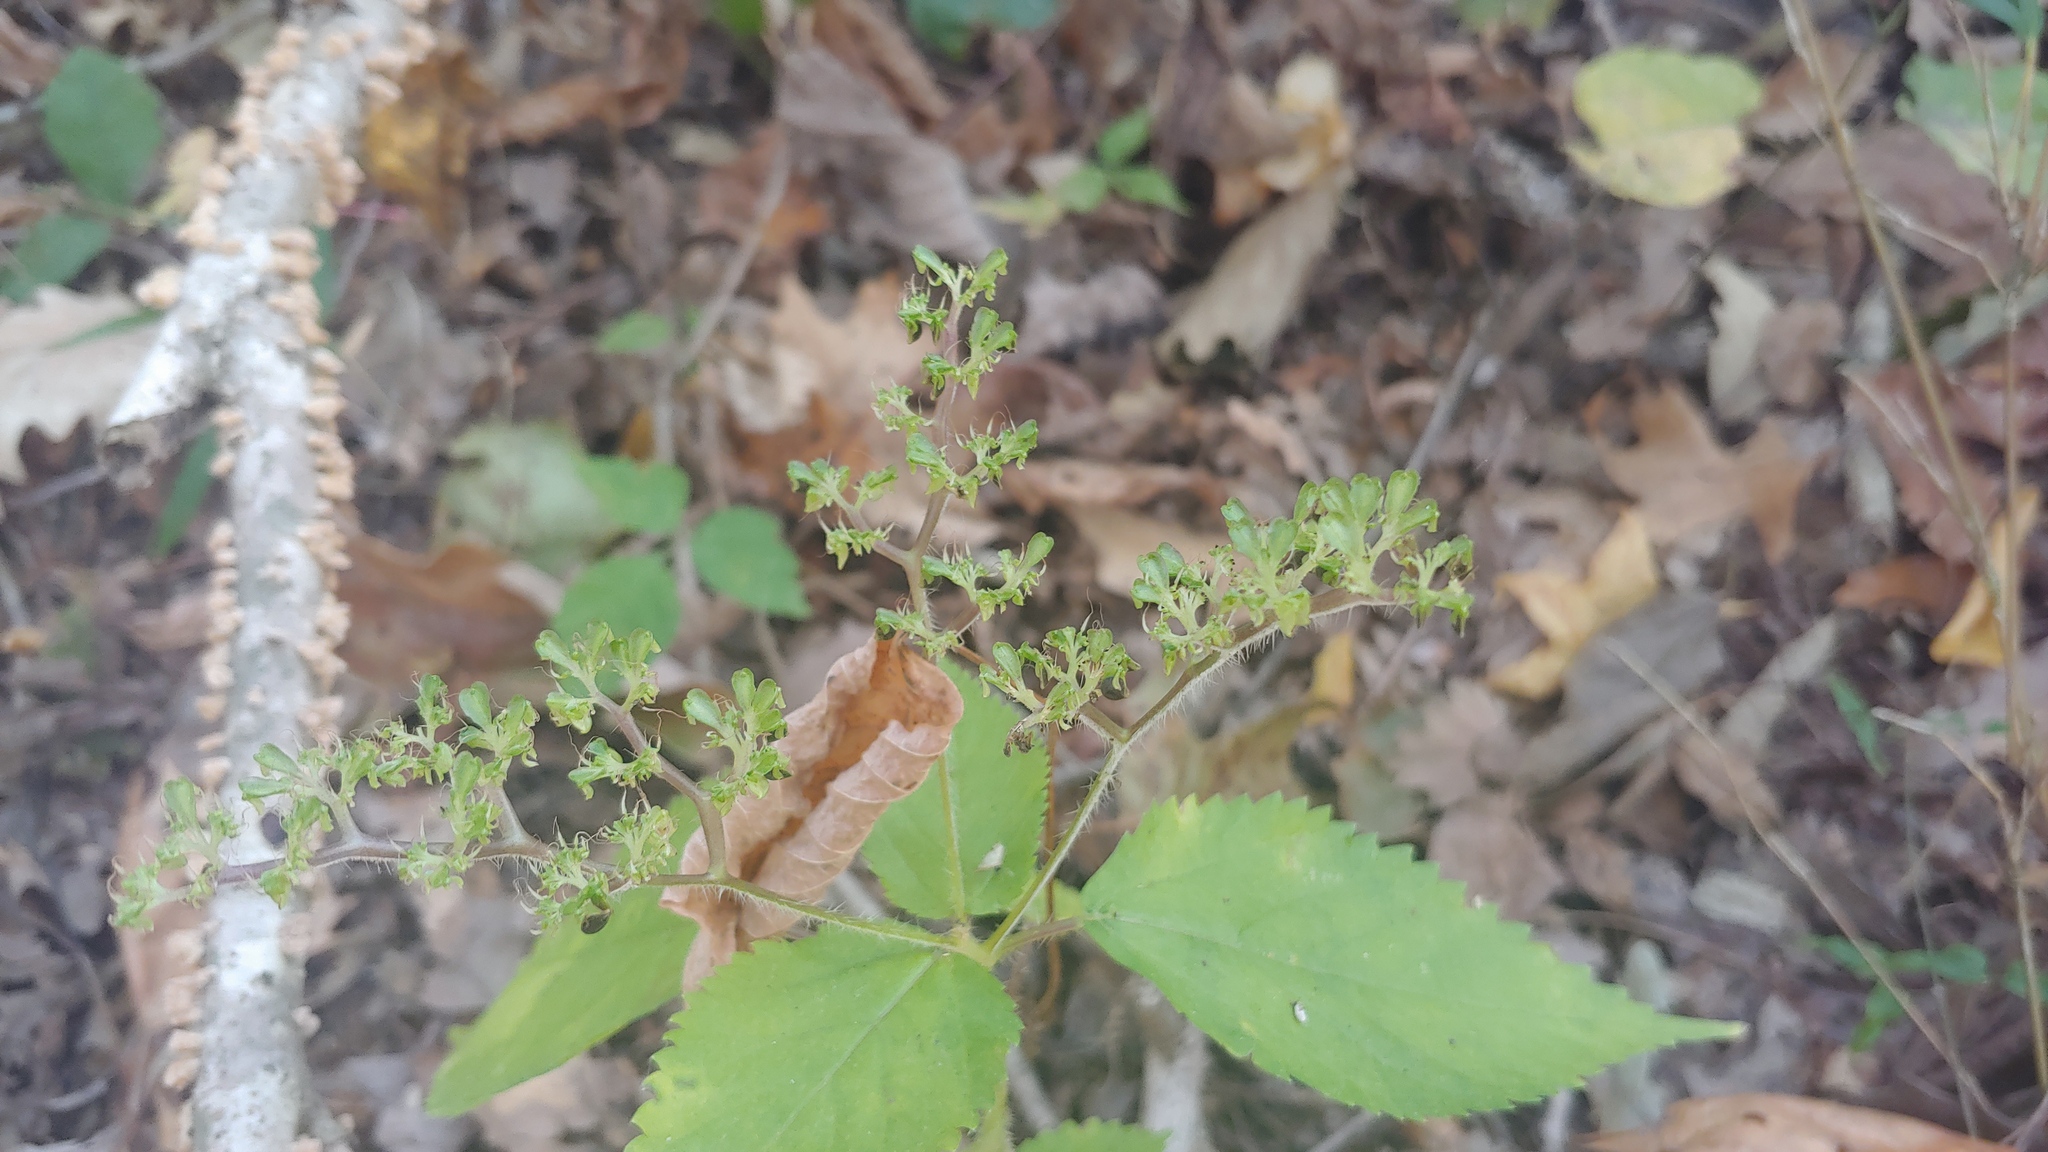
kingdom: Plantae
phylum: Tracheophyta
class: Magnoliopsida
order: Rosales
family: Urticaceae
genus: Laportea
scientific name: Laportea canadensis
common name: Canada nettle
